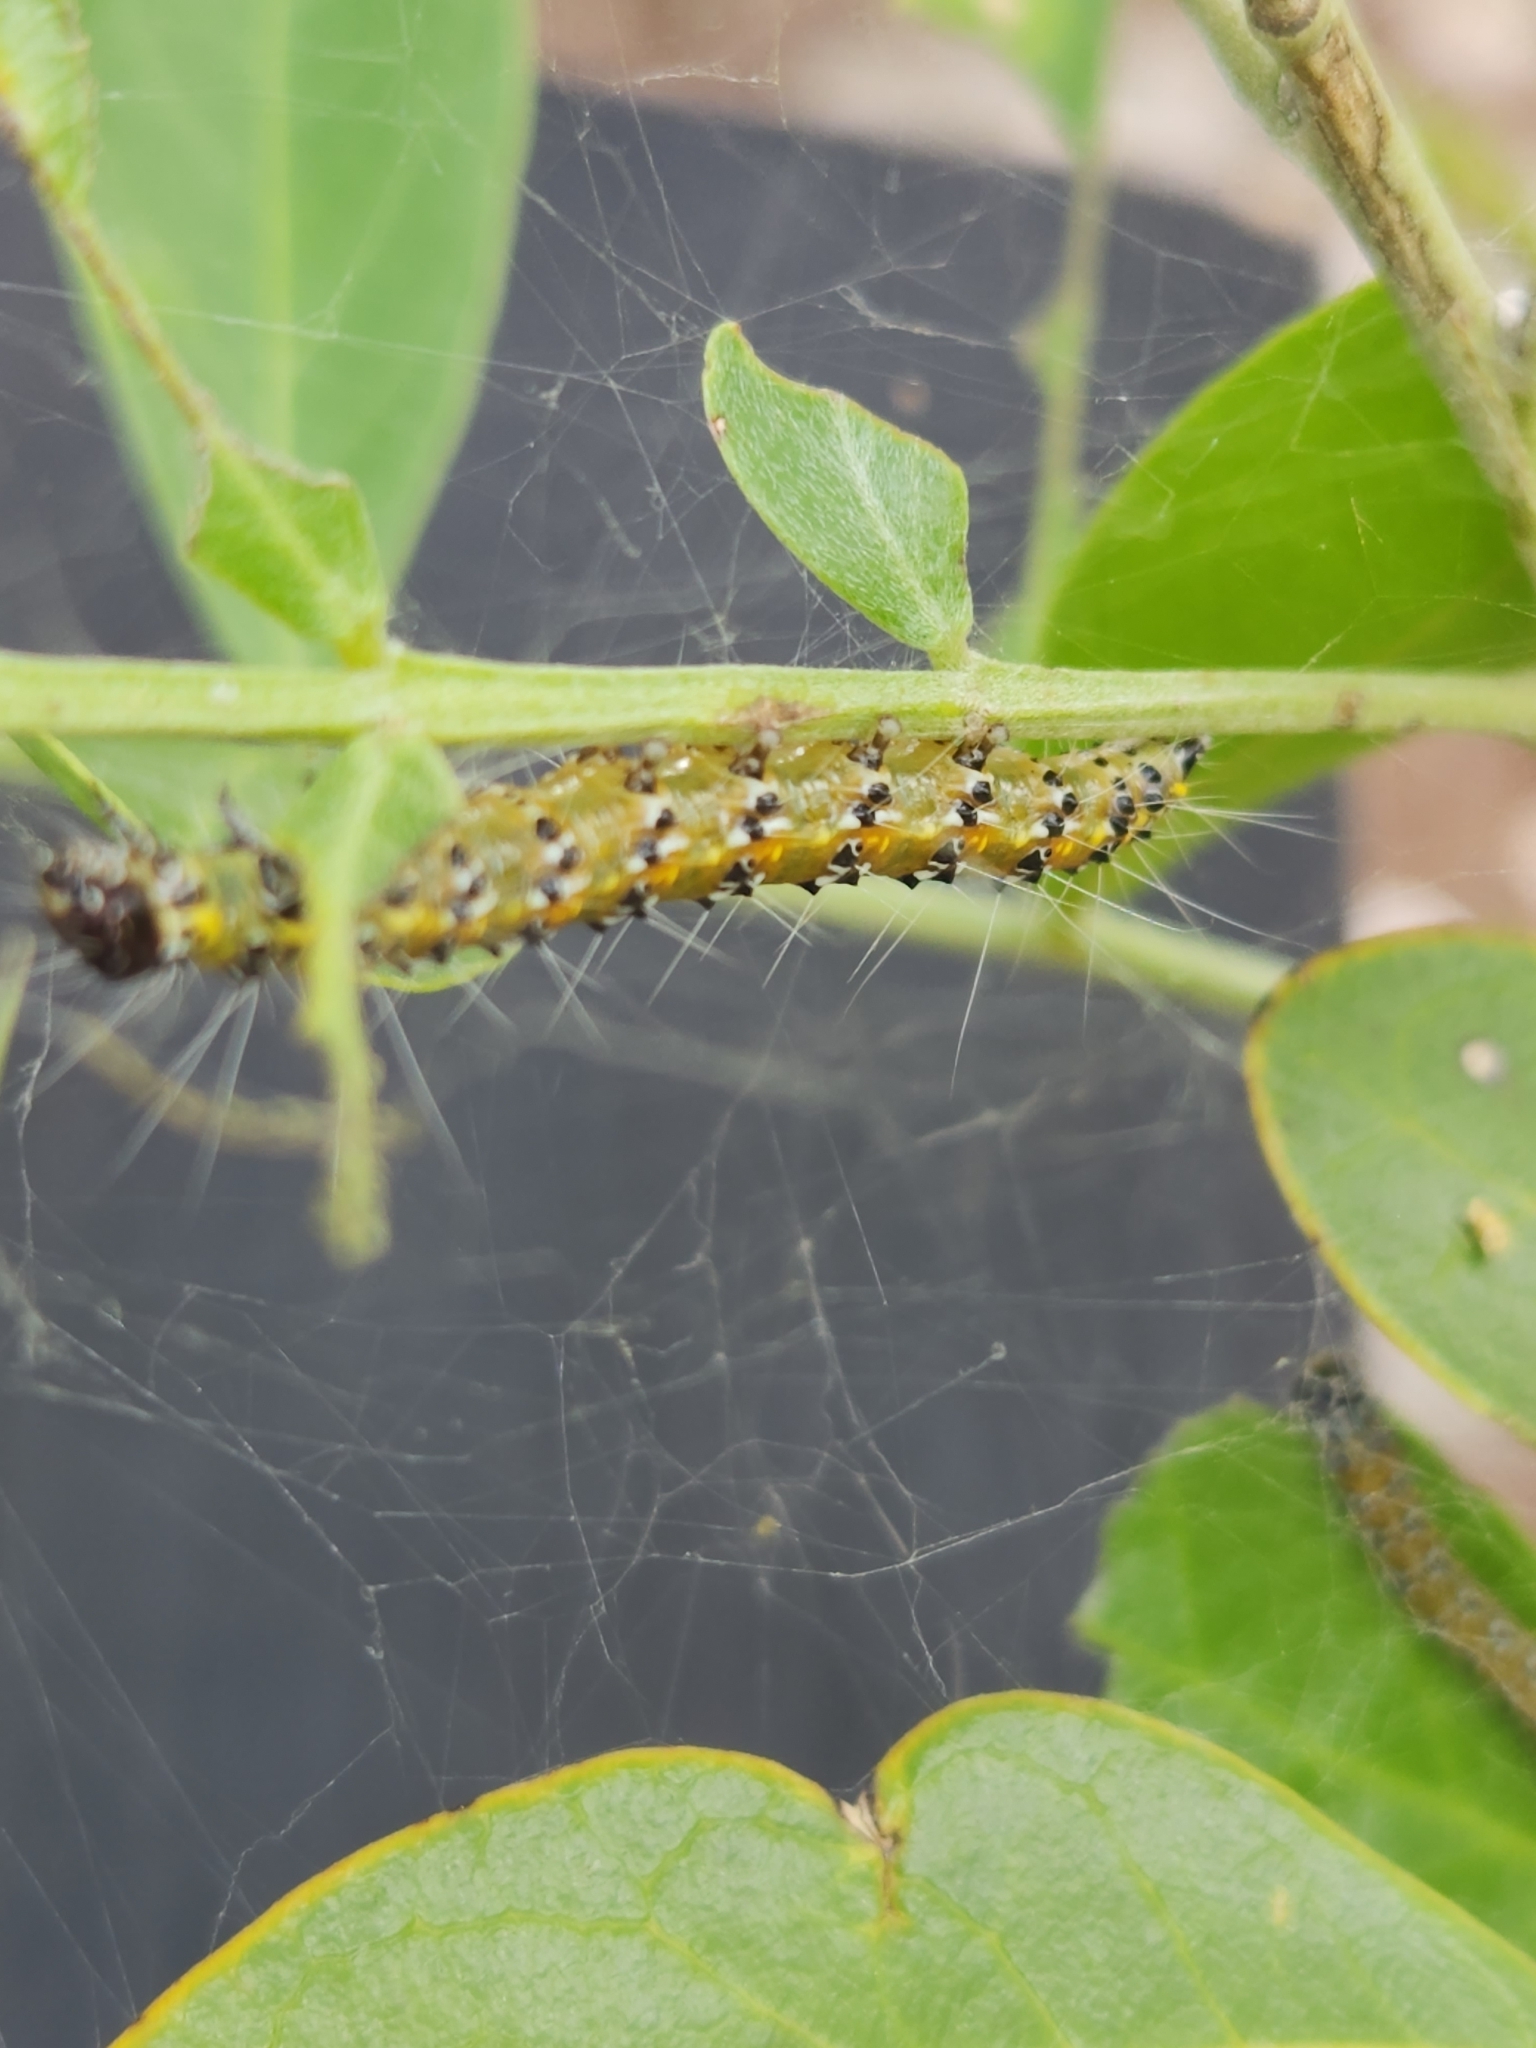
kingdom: Animalia
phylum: Arthropoda
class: Insecta
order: Lepidoptera
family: Crambidae
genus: Uresiphita
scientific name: Uresiphita reversalis
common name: Genista broom moth
